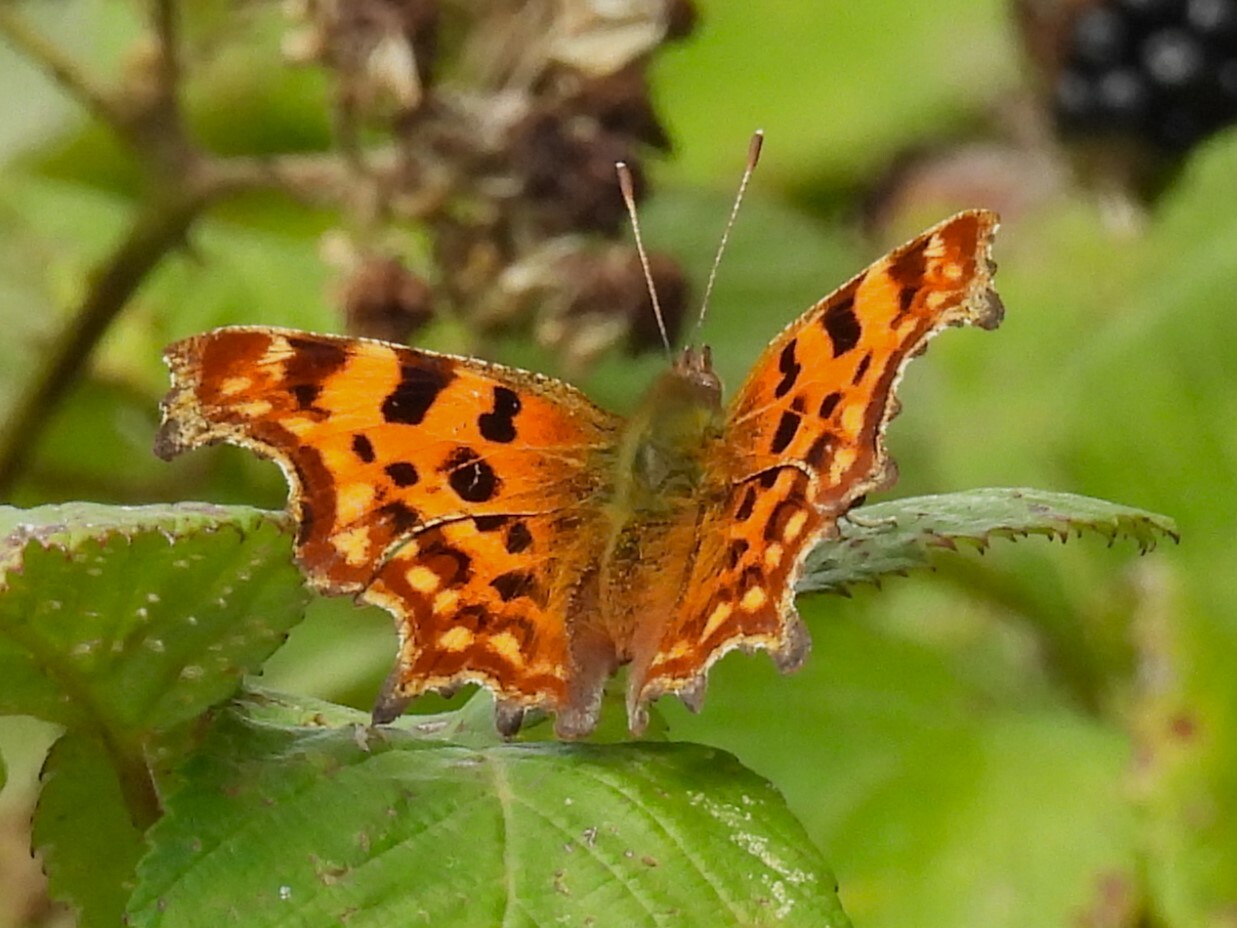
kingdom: Animalia
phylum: Arthropoda
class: Insecta
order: Lepidoptera
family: Nymphalidae
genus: Polygonia
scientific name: Polygonia c-album
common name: Comma
